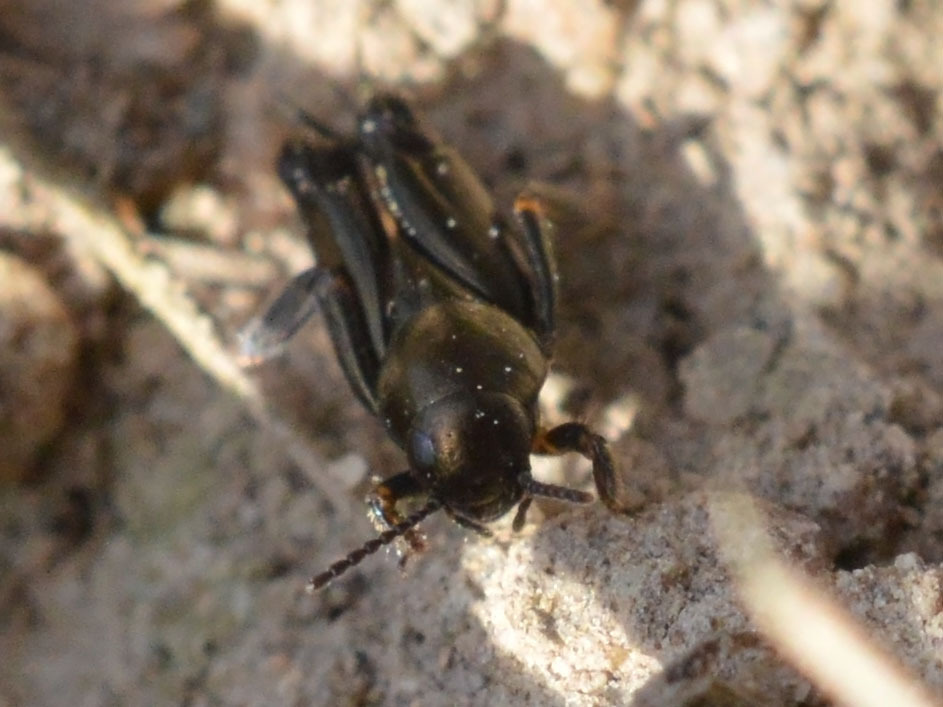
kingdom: Animalia
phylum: Arthropoda
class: Insecta
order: Orthoptera
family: Tridactylidae
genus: Xya
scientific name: Xya pfaendleri
